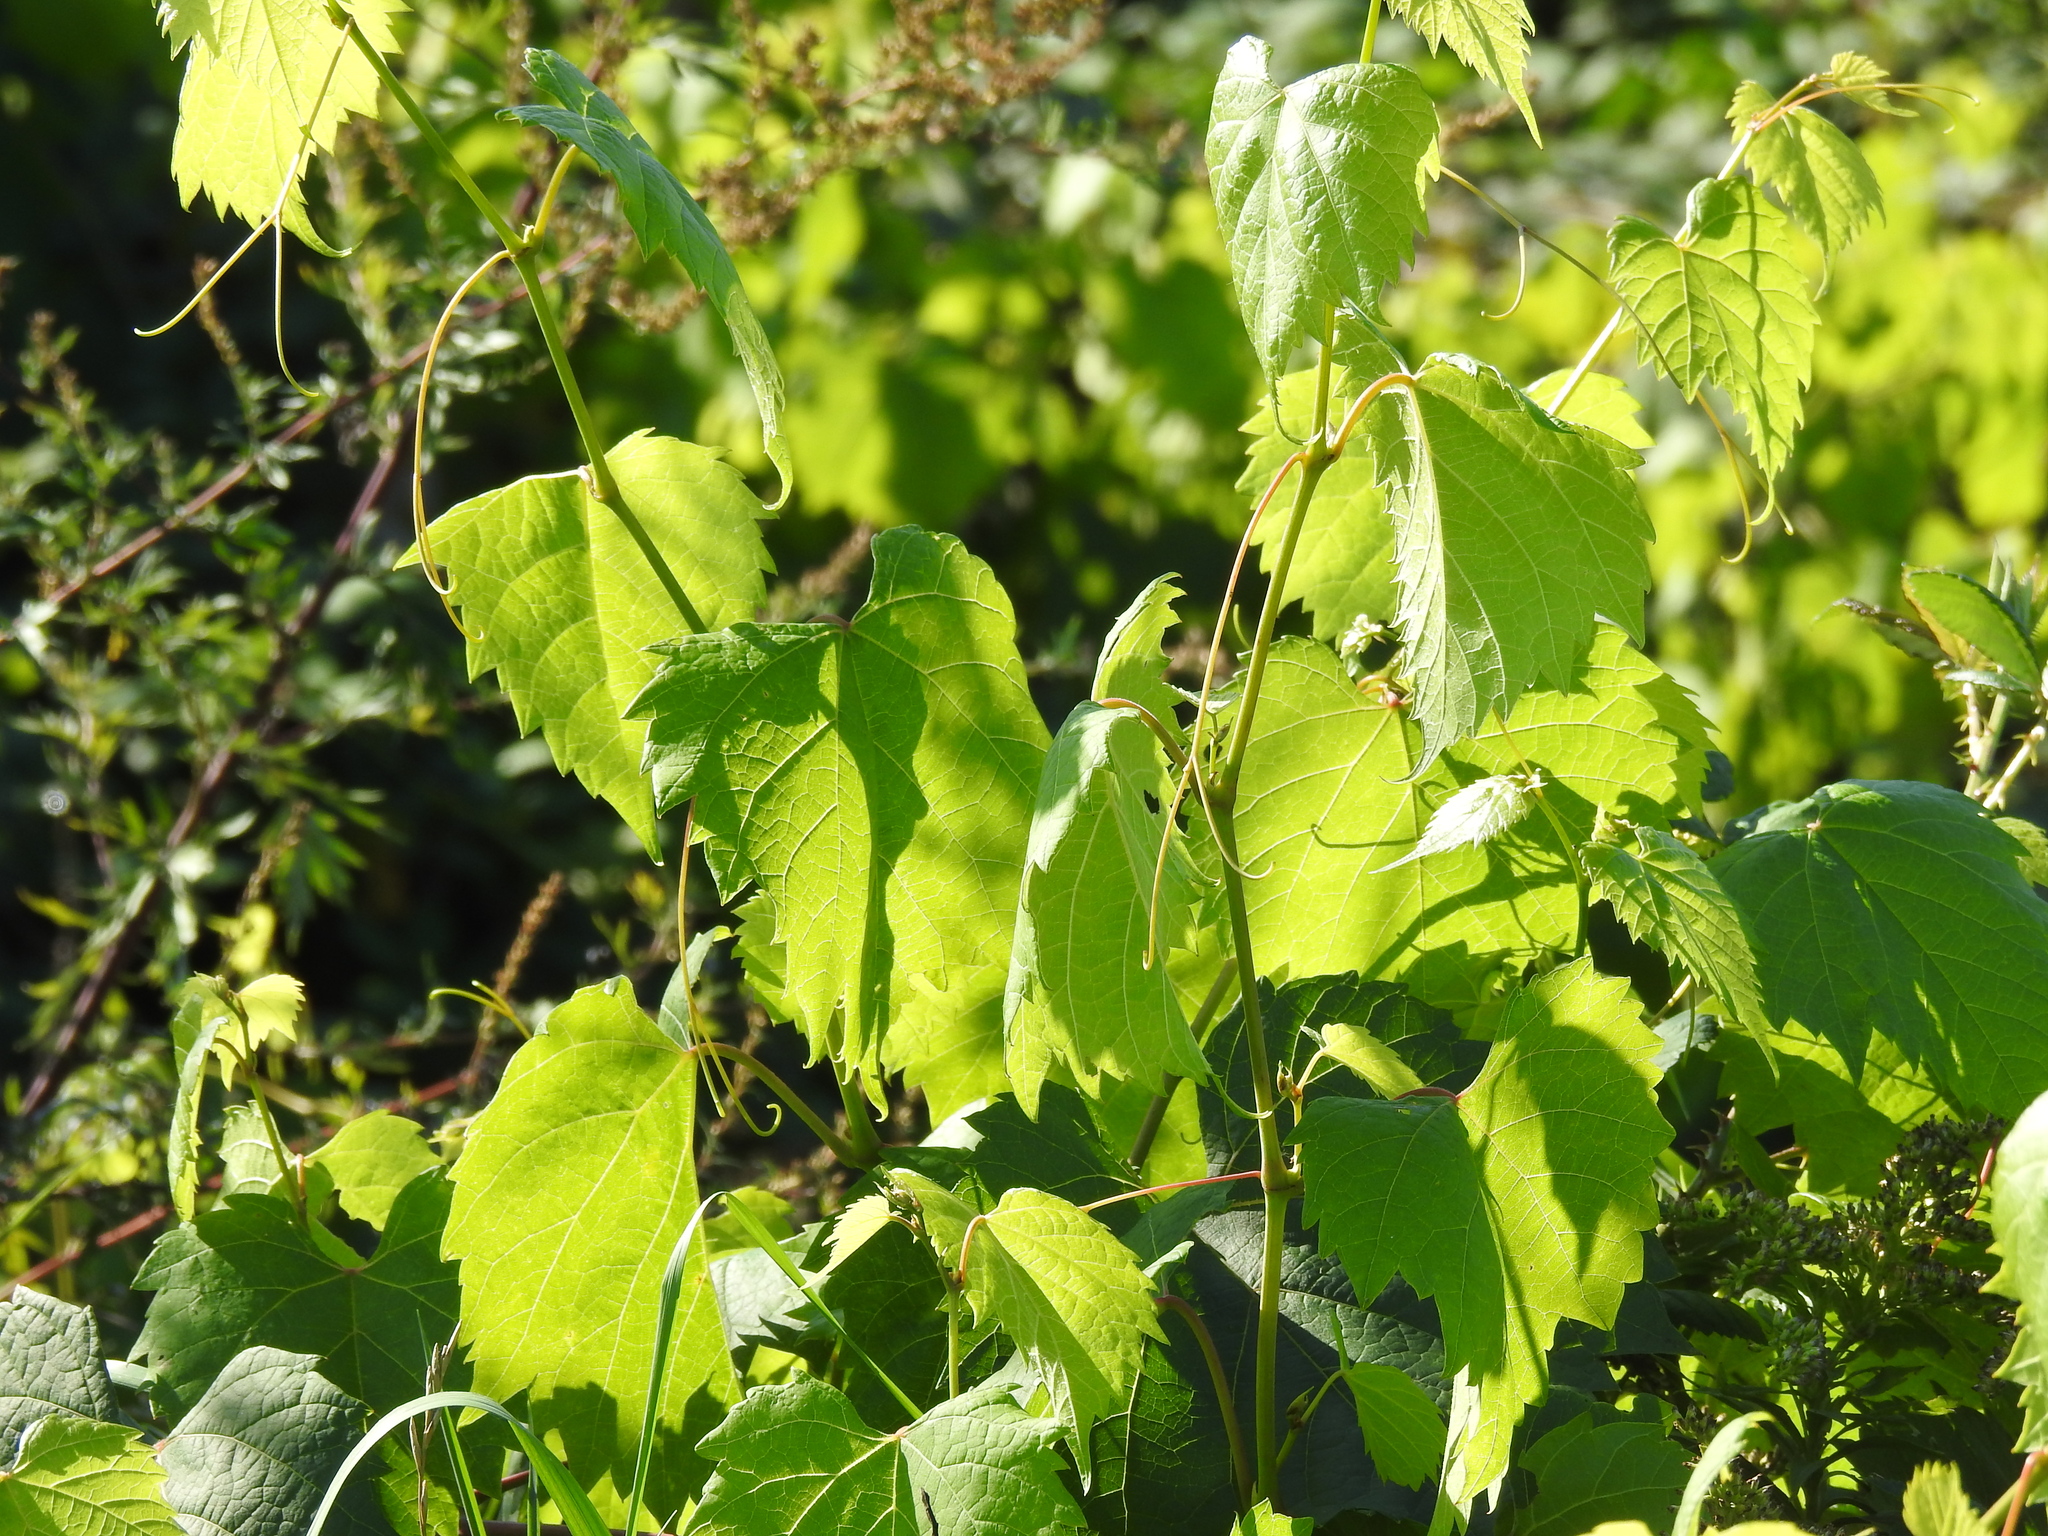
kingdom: Plantae
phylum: Tracheophyta
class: Magnoliopsida
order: Vitales
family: Vitaceae
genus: Vitis
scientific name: Vitis vinifera
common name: Grape-vine
